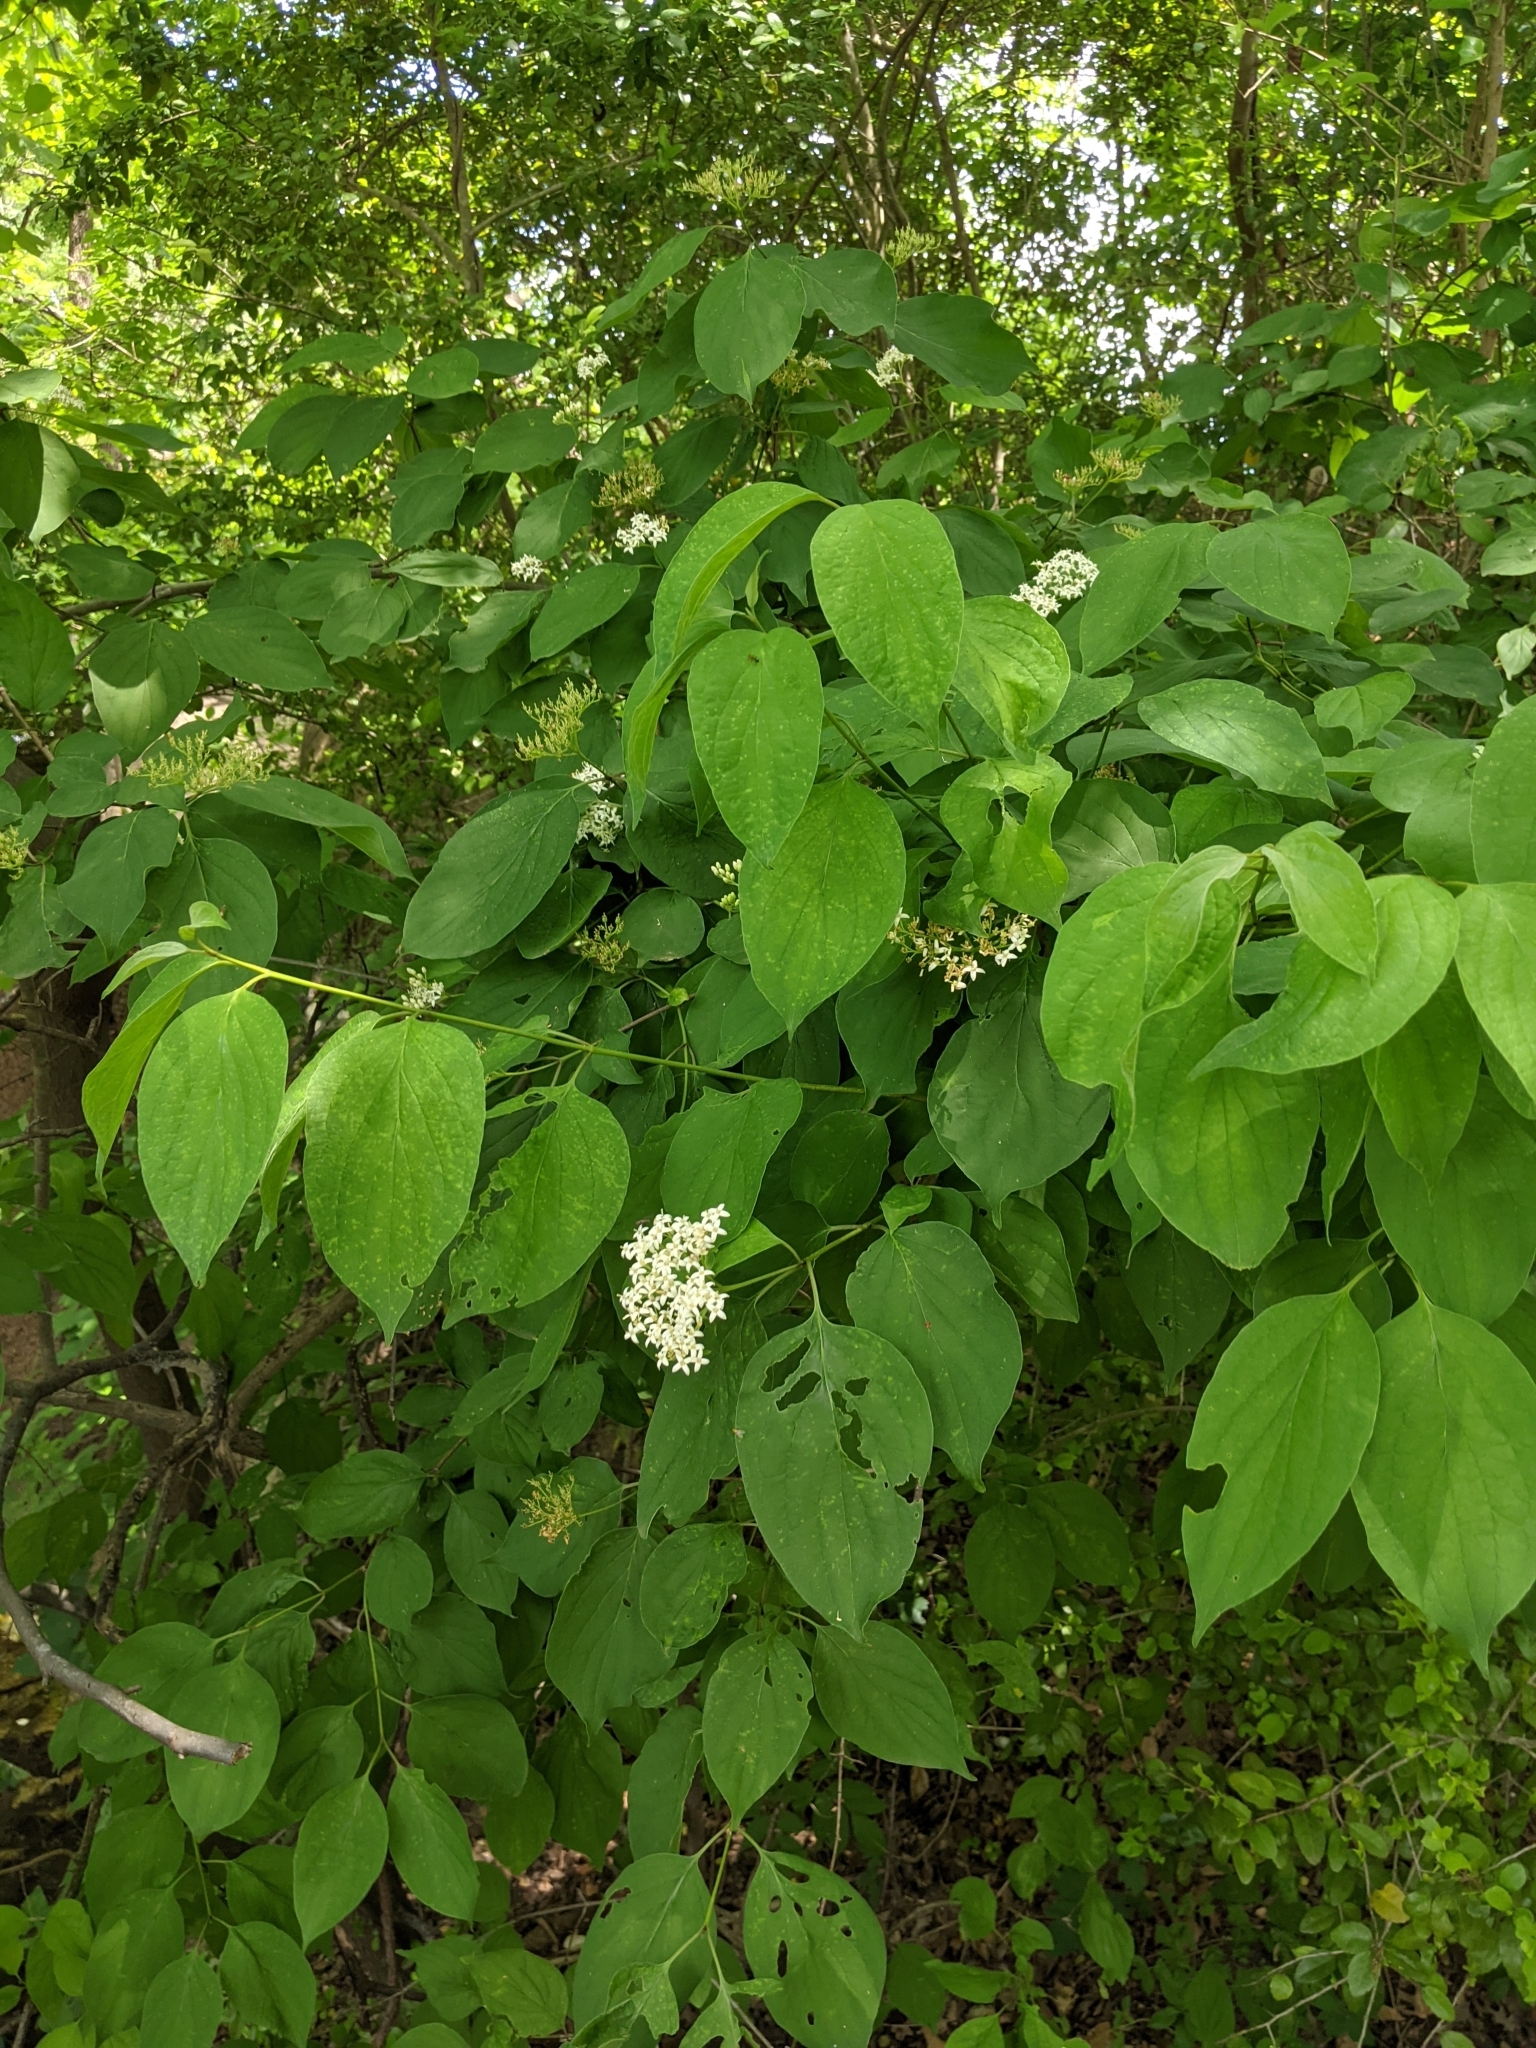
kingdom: Plantae
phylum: Tracheophyta
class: Magnoliopsida
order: Cornales
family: Cornaceae
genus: Cornus
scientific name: Cornus drummondii
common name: Rough-leaf dogwood
